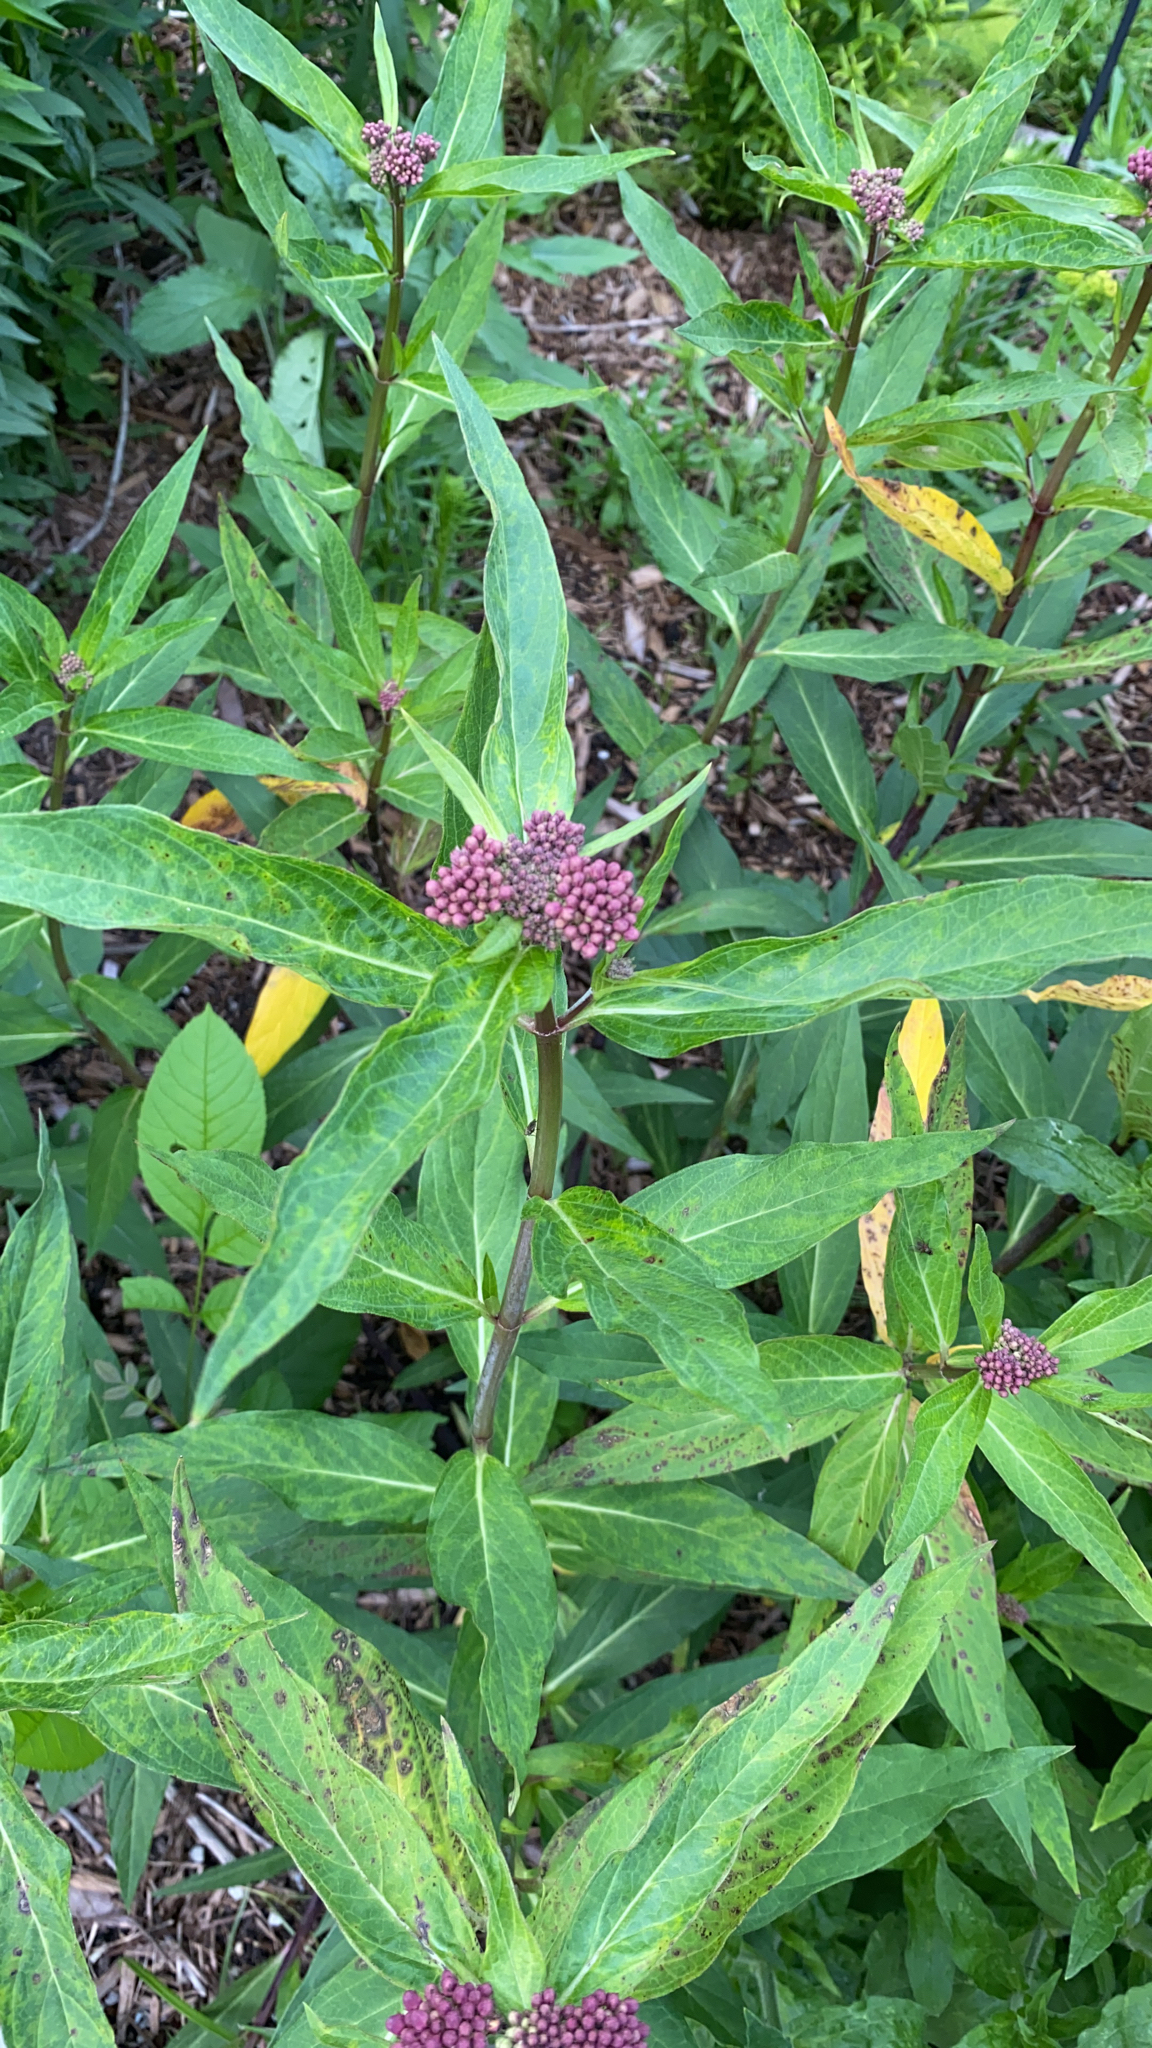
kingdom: Plantae
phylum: Tracheophyta
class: Magnoliopsida
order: Gentianales
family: Apocynaceae
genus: Asclepias
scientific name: Asclepias incarnata
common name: Swamp milkweed
